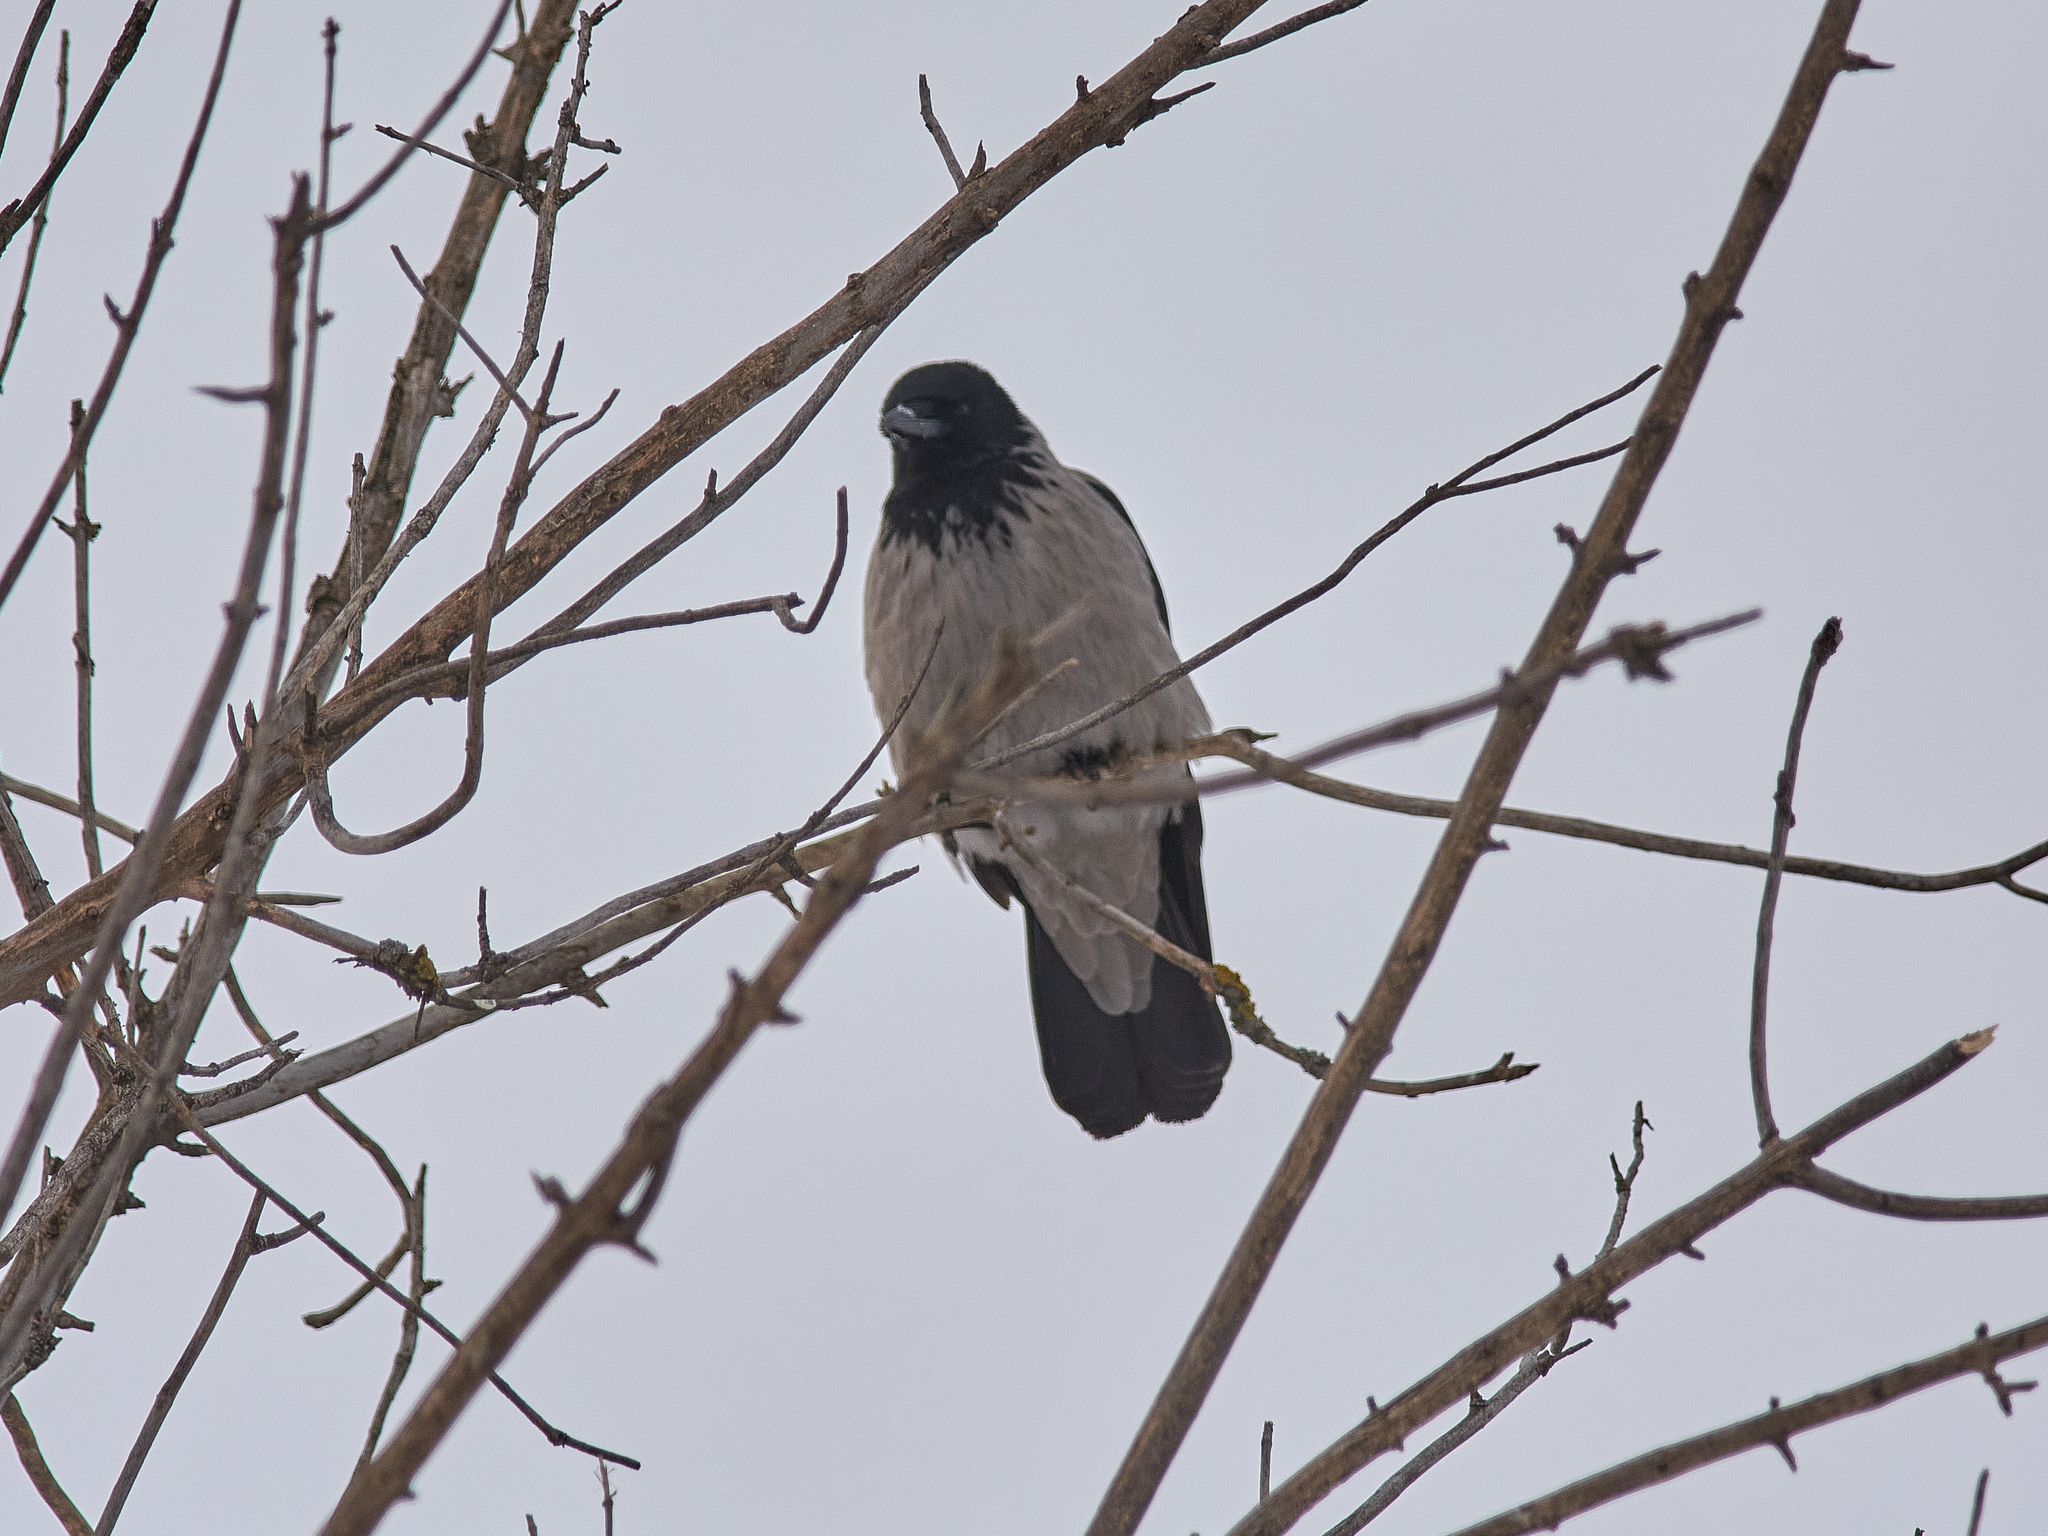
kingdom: Animalia
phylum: Chordata
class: Aves
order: Passeriformes
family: Corvidae
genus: Corvus
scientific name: Corvus cornix
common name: Hooded crow
